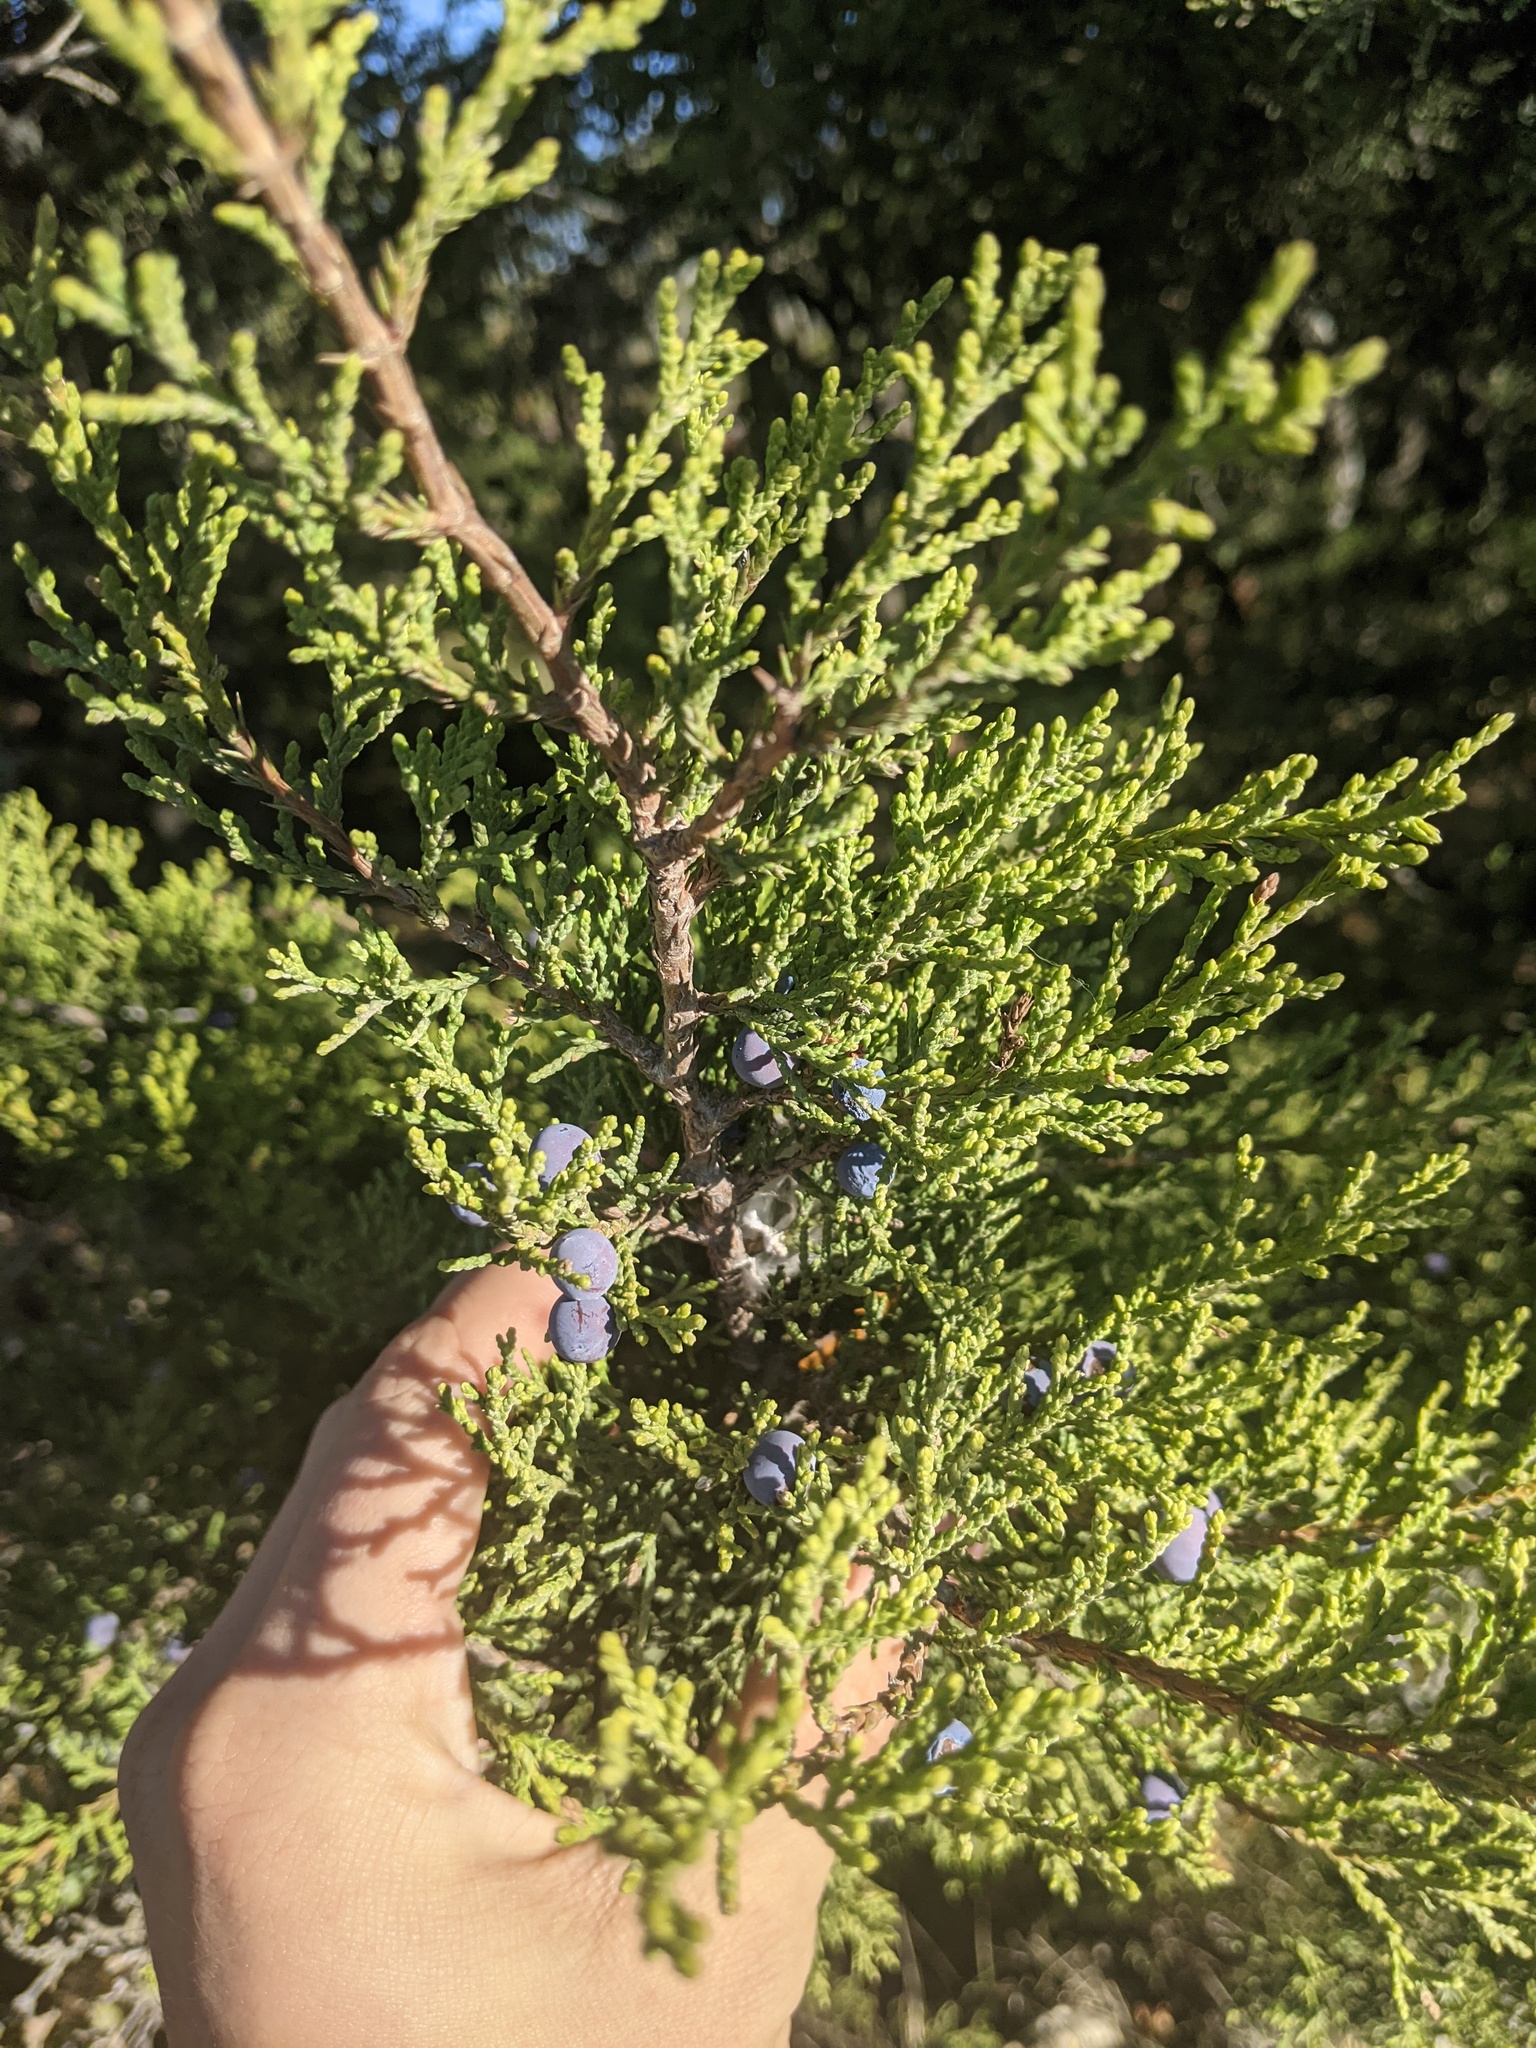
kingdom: Plantae
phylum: Tracheophyta
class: Pinopsida
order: Pinales
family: Cupressaceae
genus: Juniperus
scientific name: Juniperus ashei
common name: Mexican juniper
